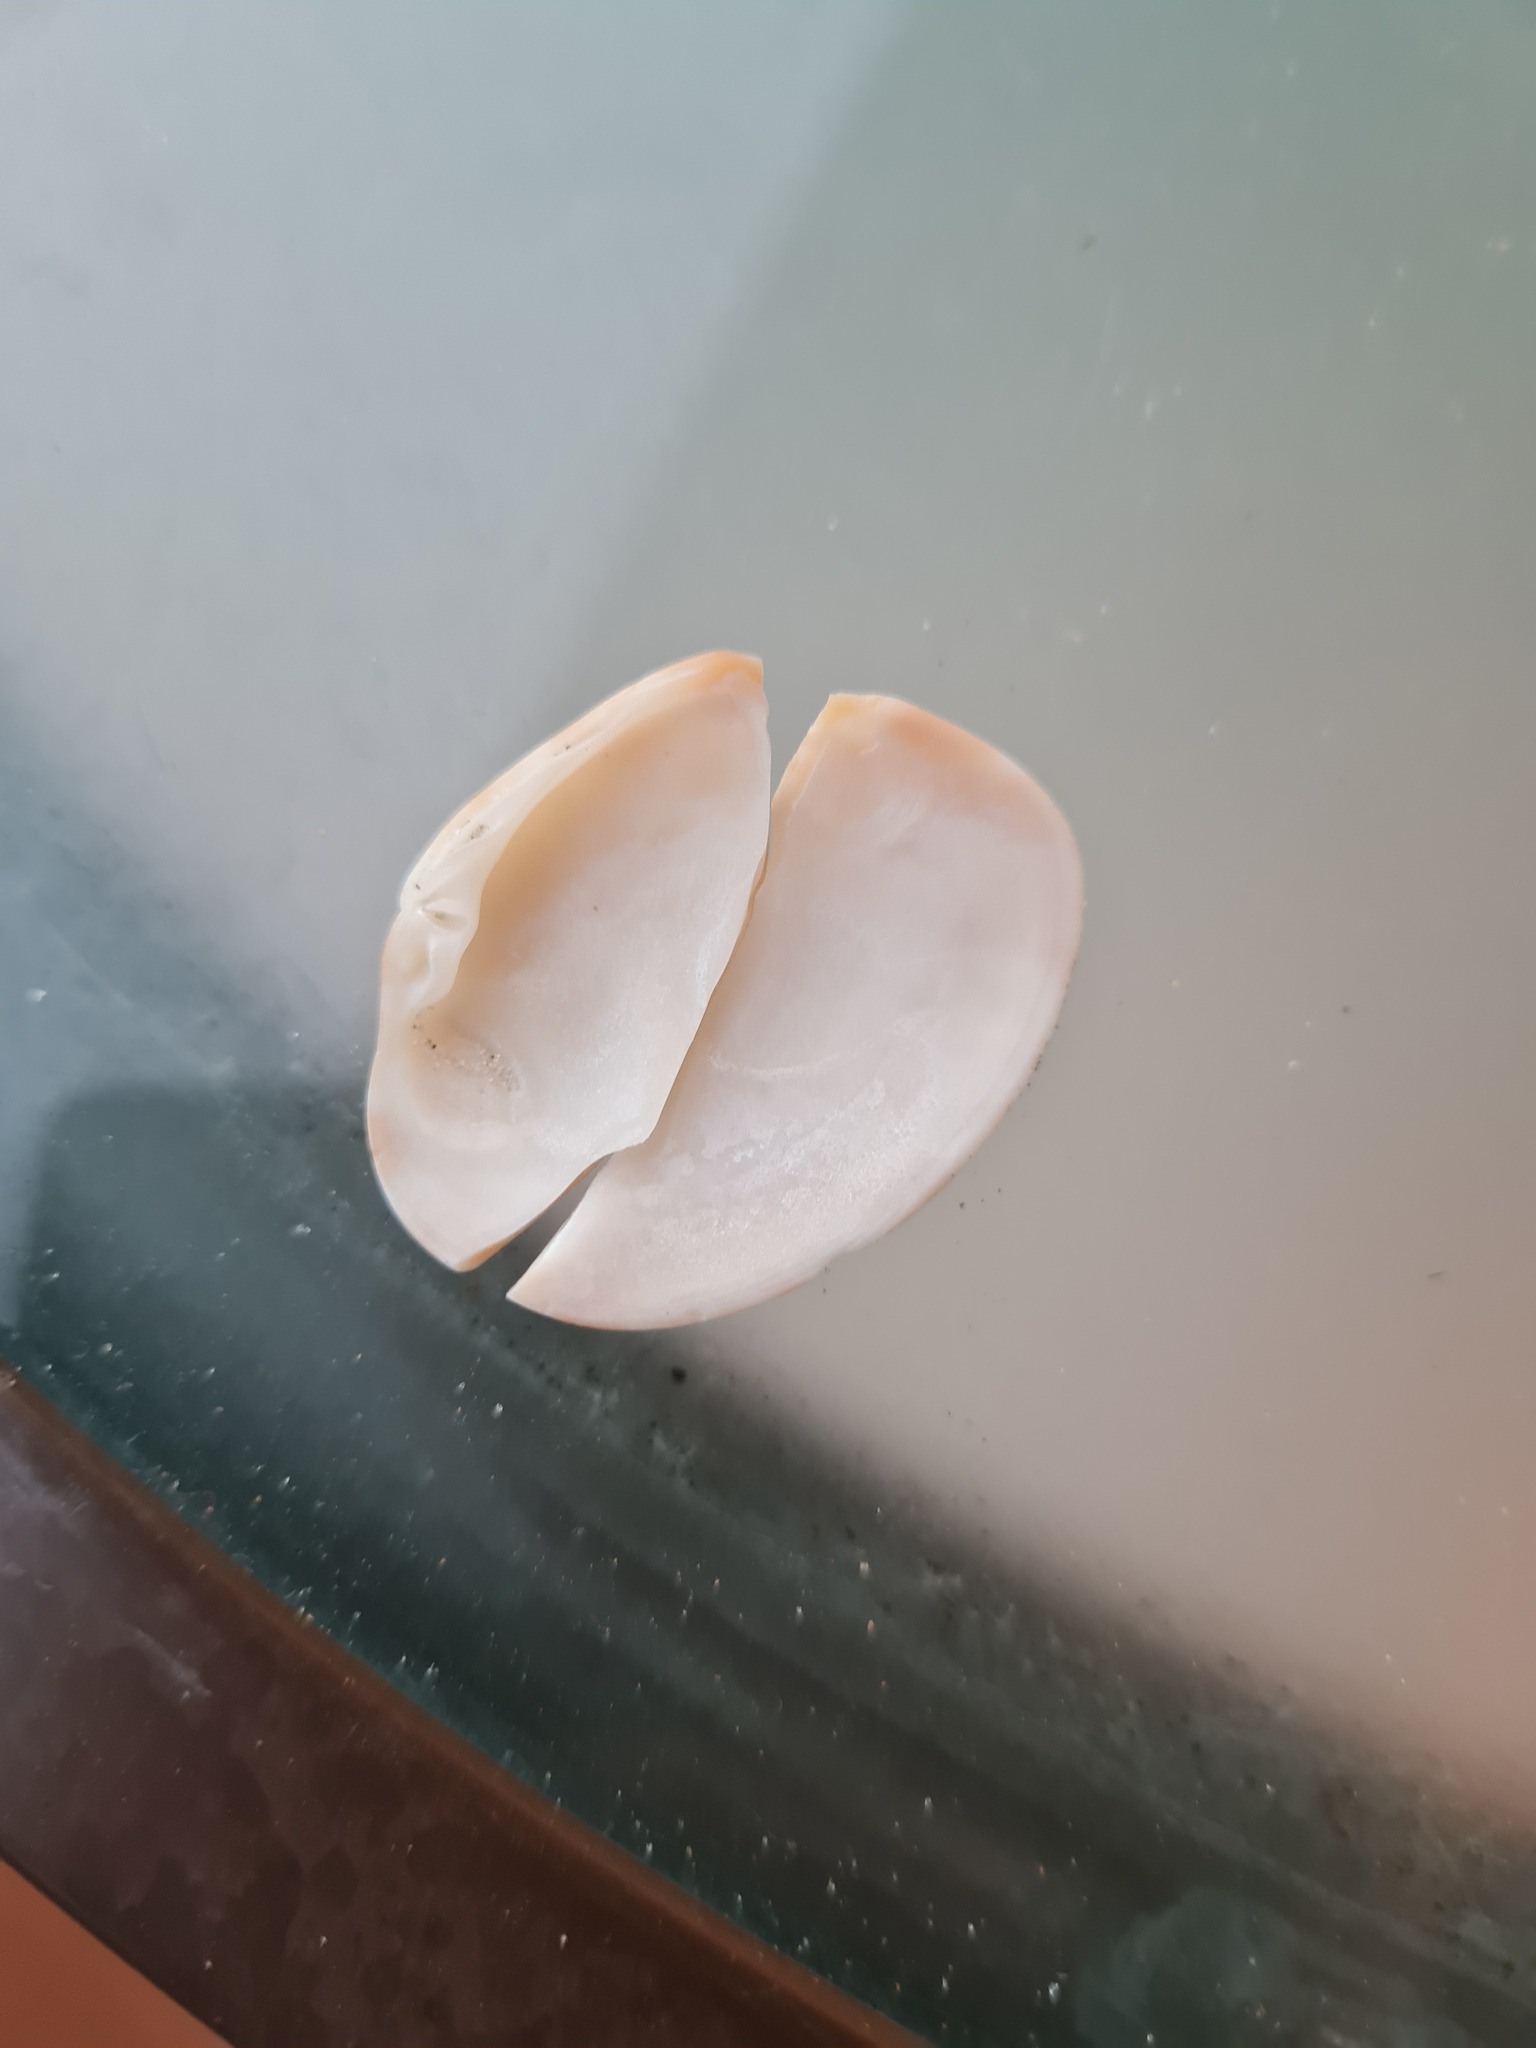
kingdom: Animalia
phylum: Mollusca
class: Bivalvia
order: Venerida
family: Veneridae
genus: Megapitaria
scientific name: Megapitaria maculata
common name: Calico clam
